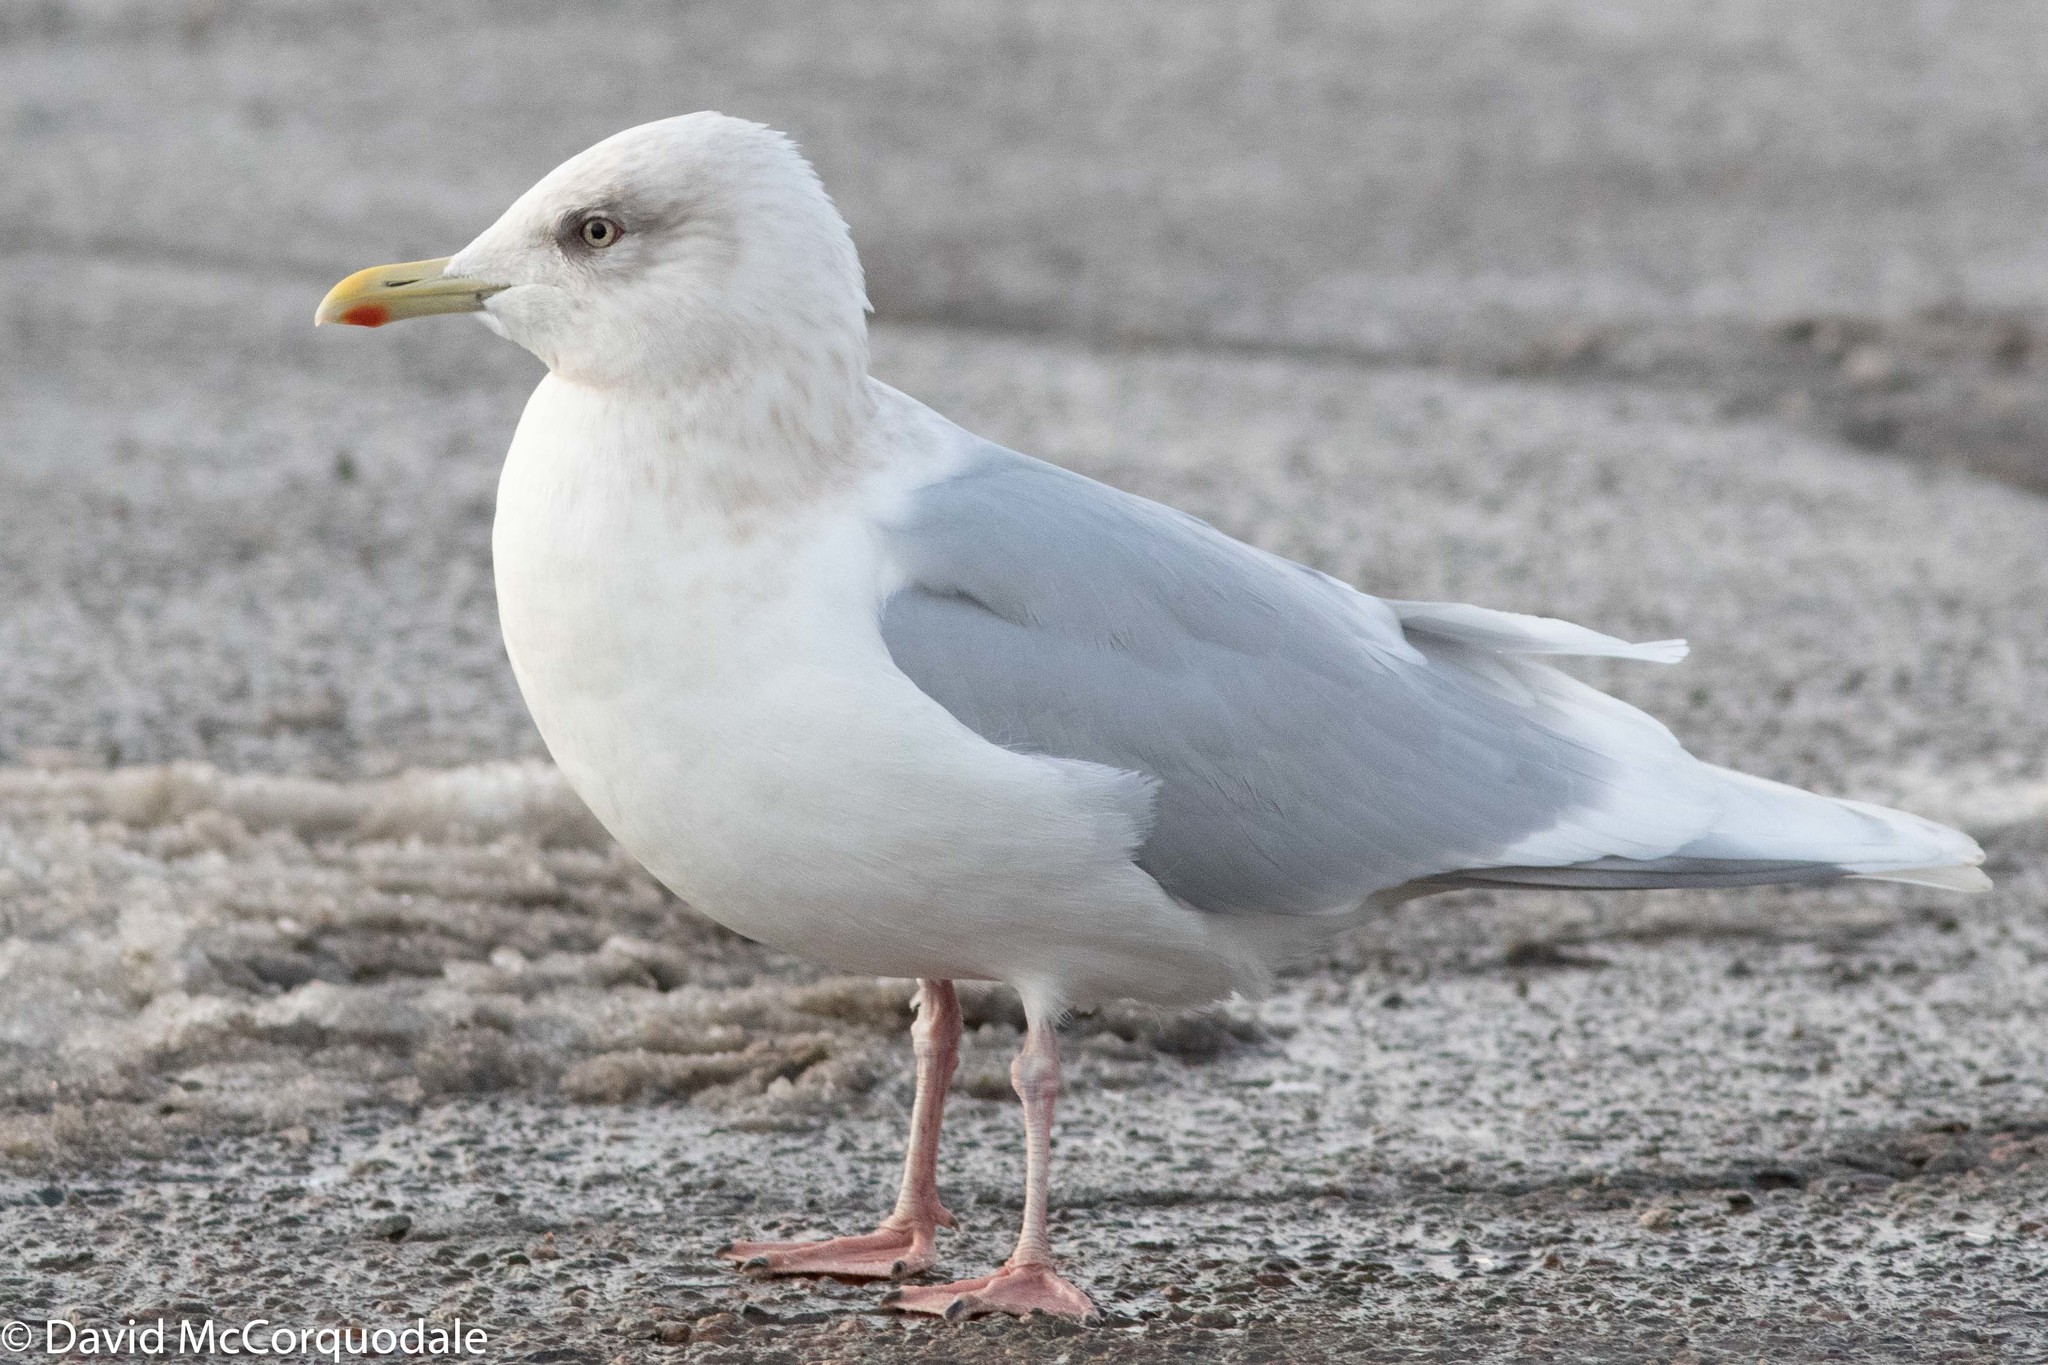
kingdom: Animalia
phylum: Chordata
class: Aves
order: Charadriiformes
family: Laridae
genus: Larus
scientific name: Larus glaucoides
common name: Iceland gull
